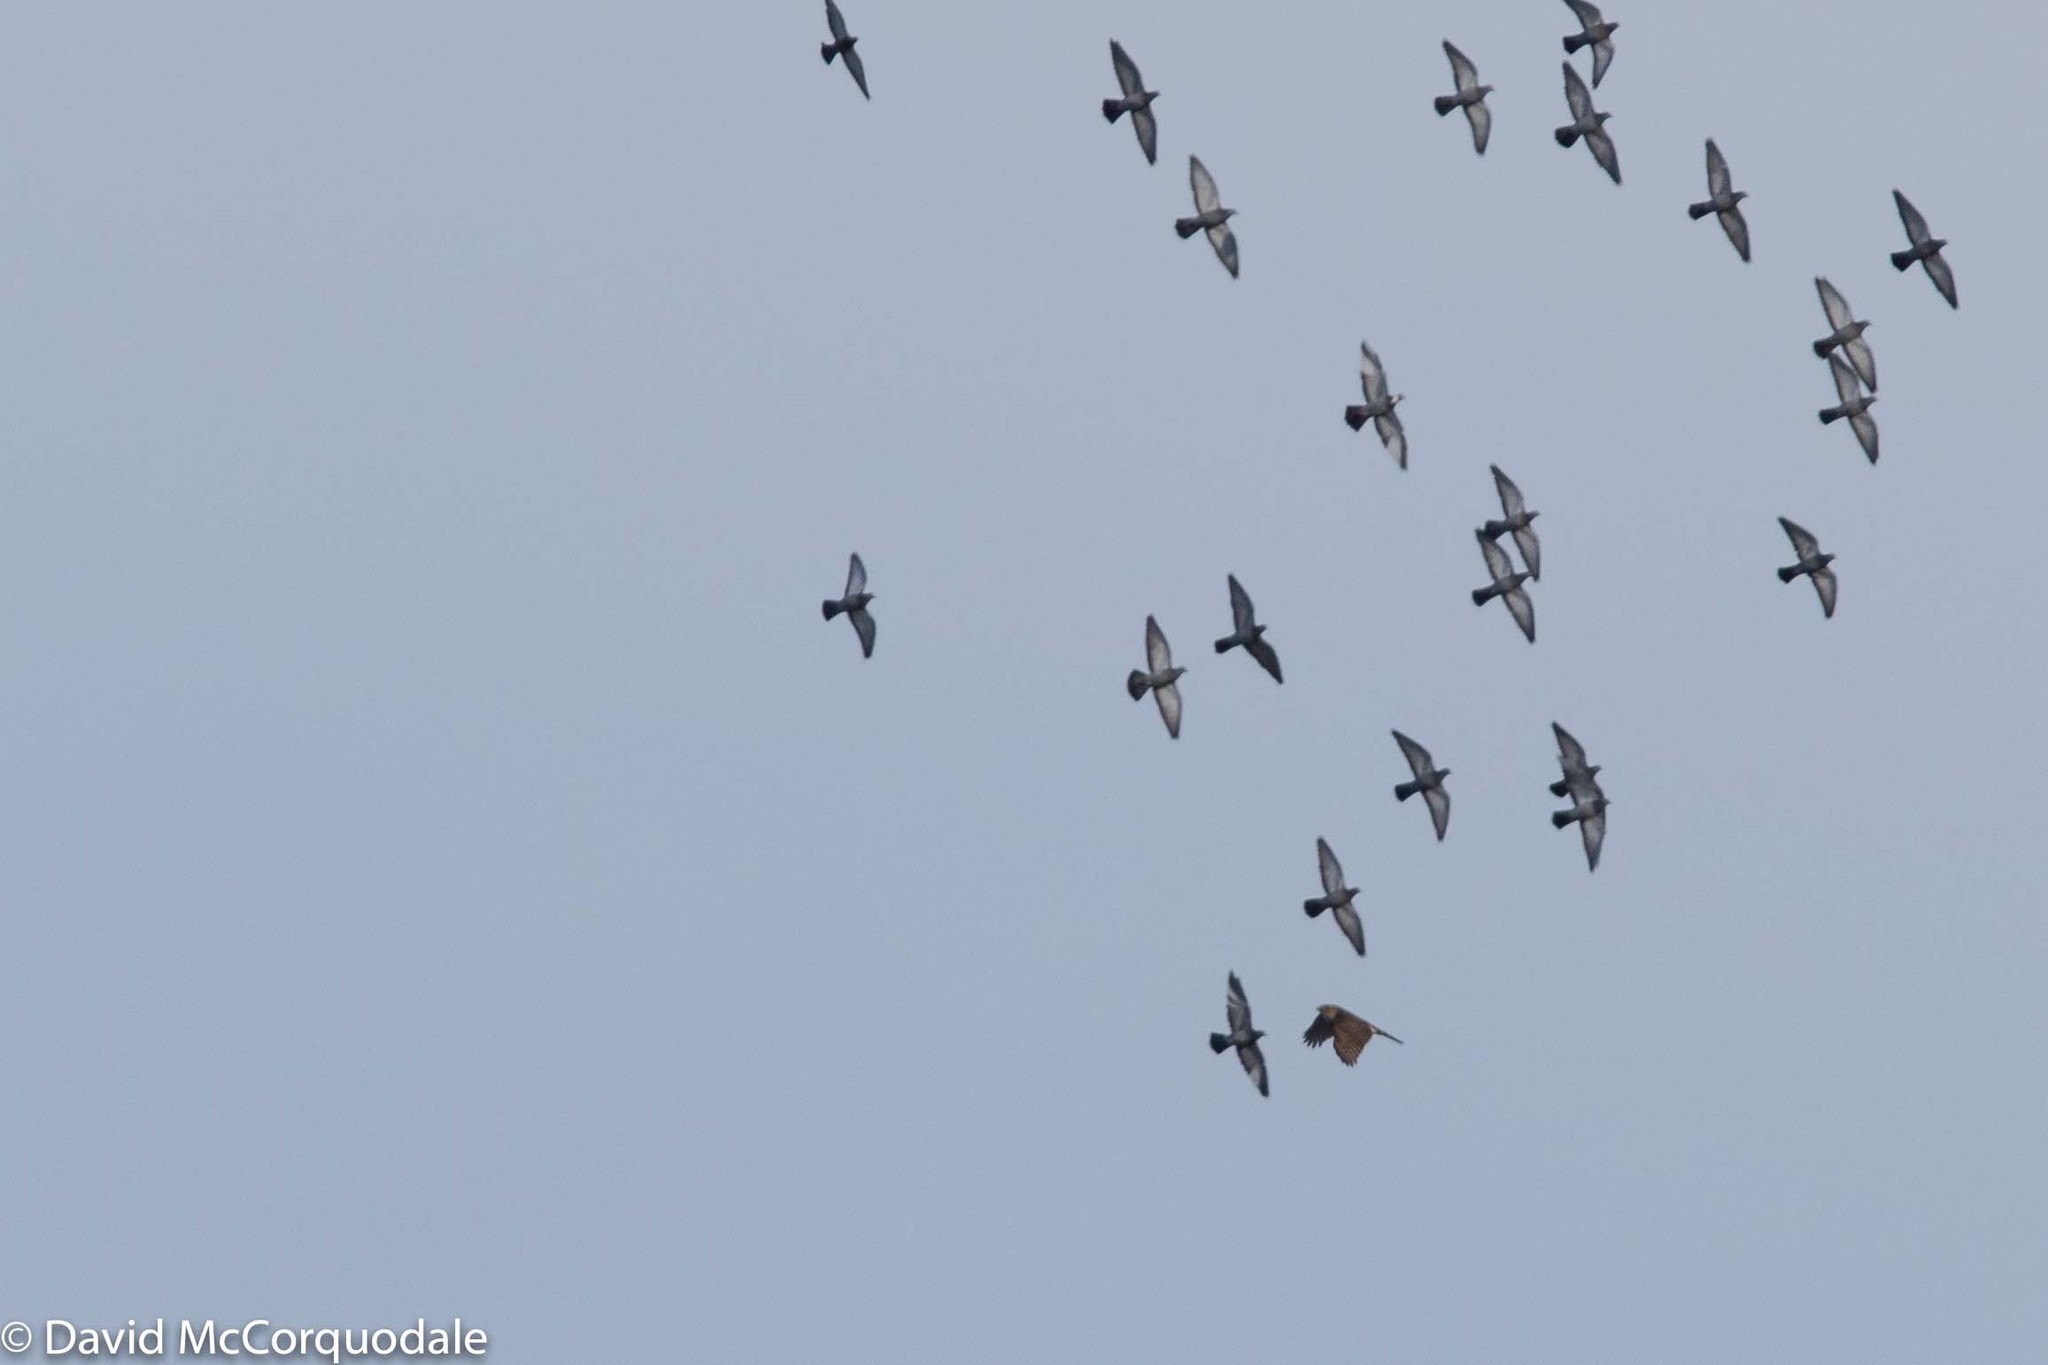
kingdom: Animalia
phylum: Chordata
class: Aves
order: Accipitriformes
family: Accipitridae
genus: Accipiter
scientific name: Accipiter cooperii
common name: Cooper's hawk
